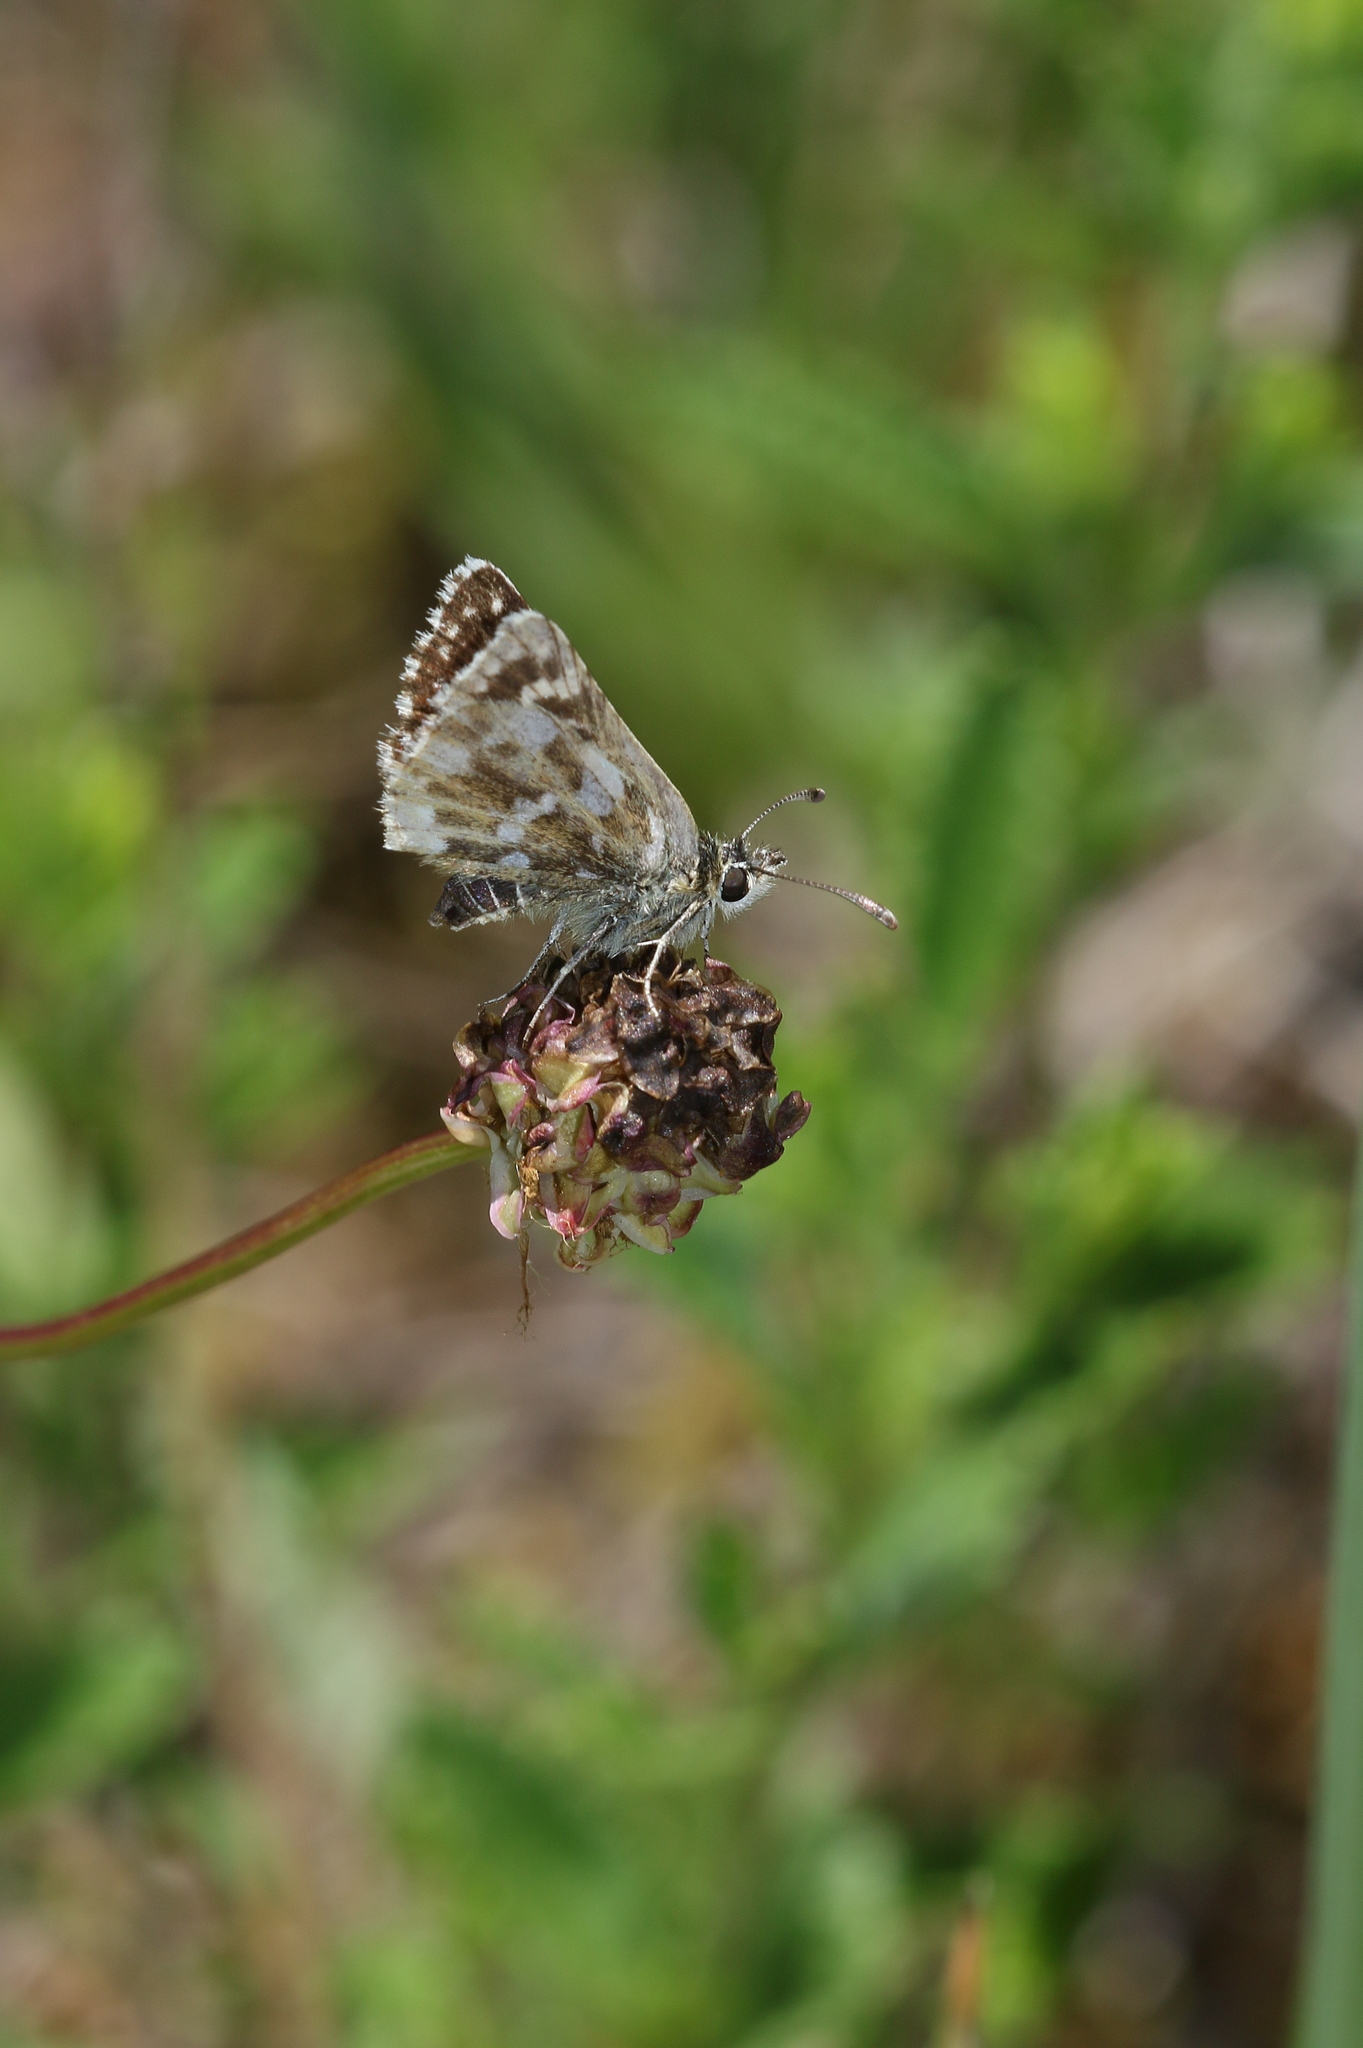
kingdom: Animalia
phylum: Arthropoda
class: Insecta
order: Lepidoptera
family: Hesperiidae
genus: Spialia
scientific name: Spialia sertorius
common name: Red underwing skipper
